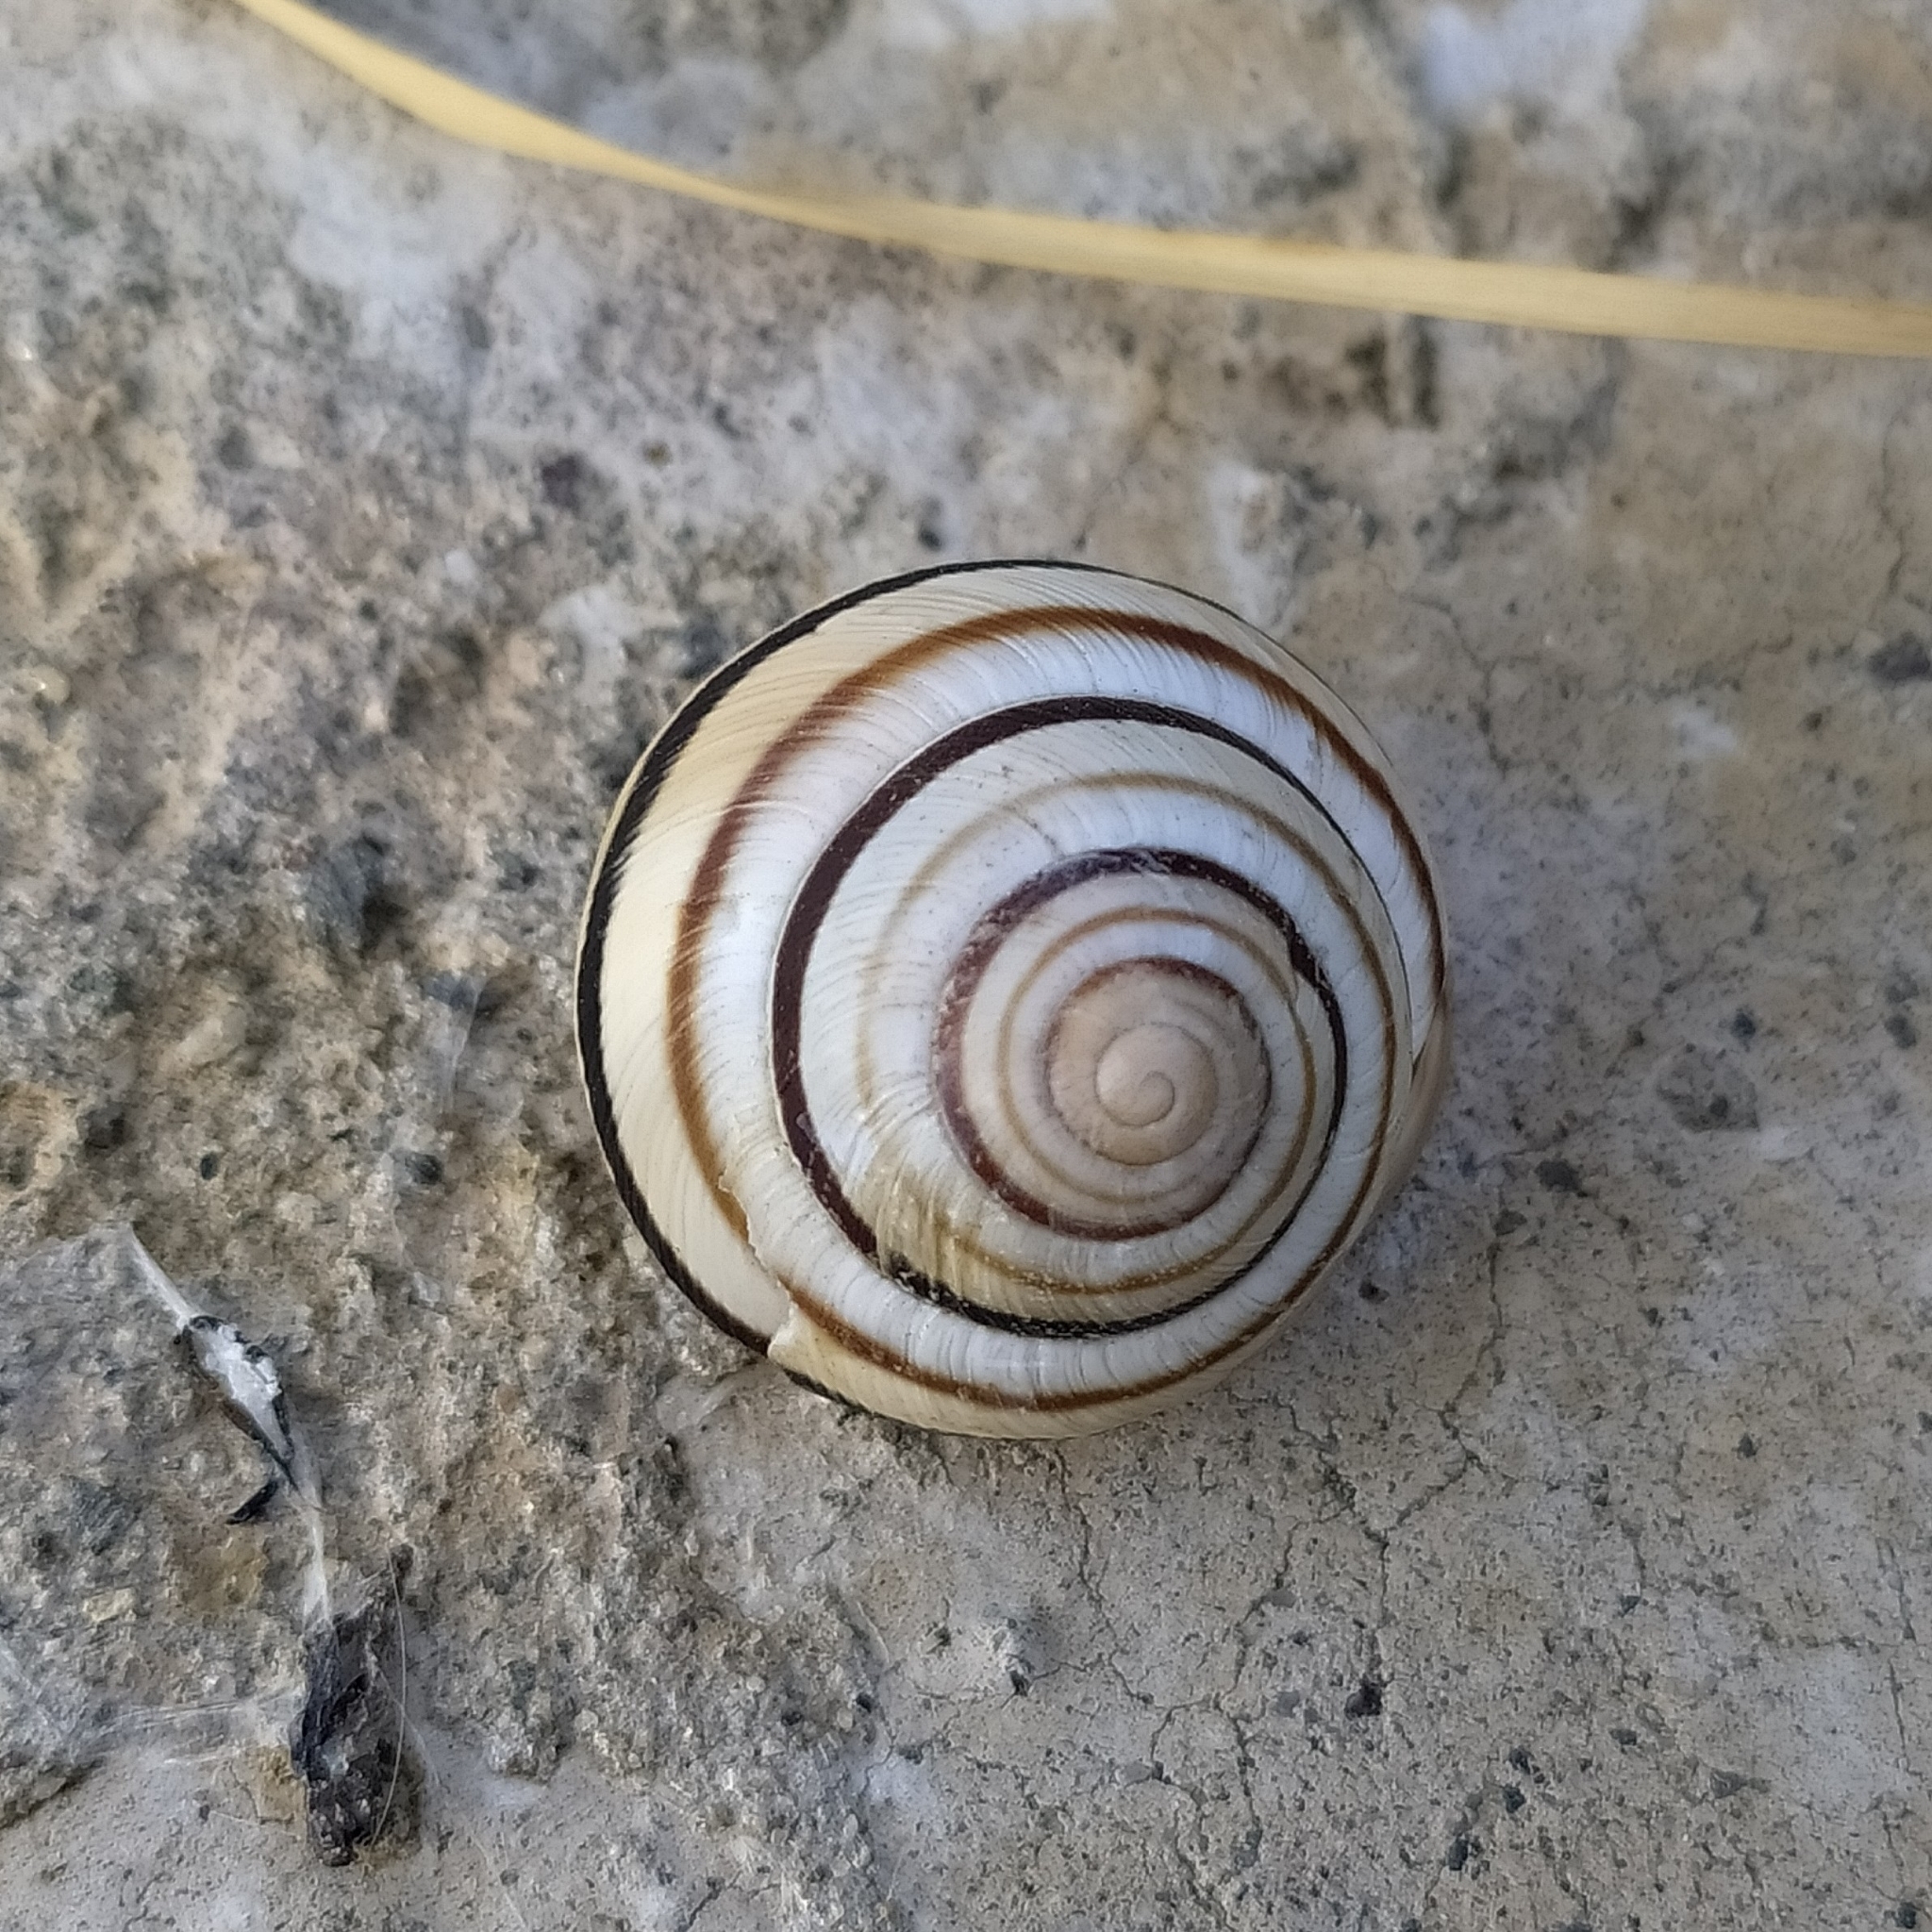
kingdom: Animalia
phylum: Mollusca
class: Gastropoda
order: Stylommatophora
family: Helicidae
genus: Caucasotachea
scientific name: Caucasotachea vindobonensis
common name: European helicid land snail
